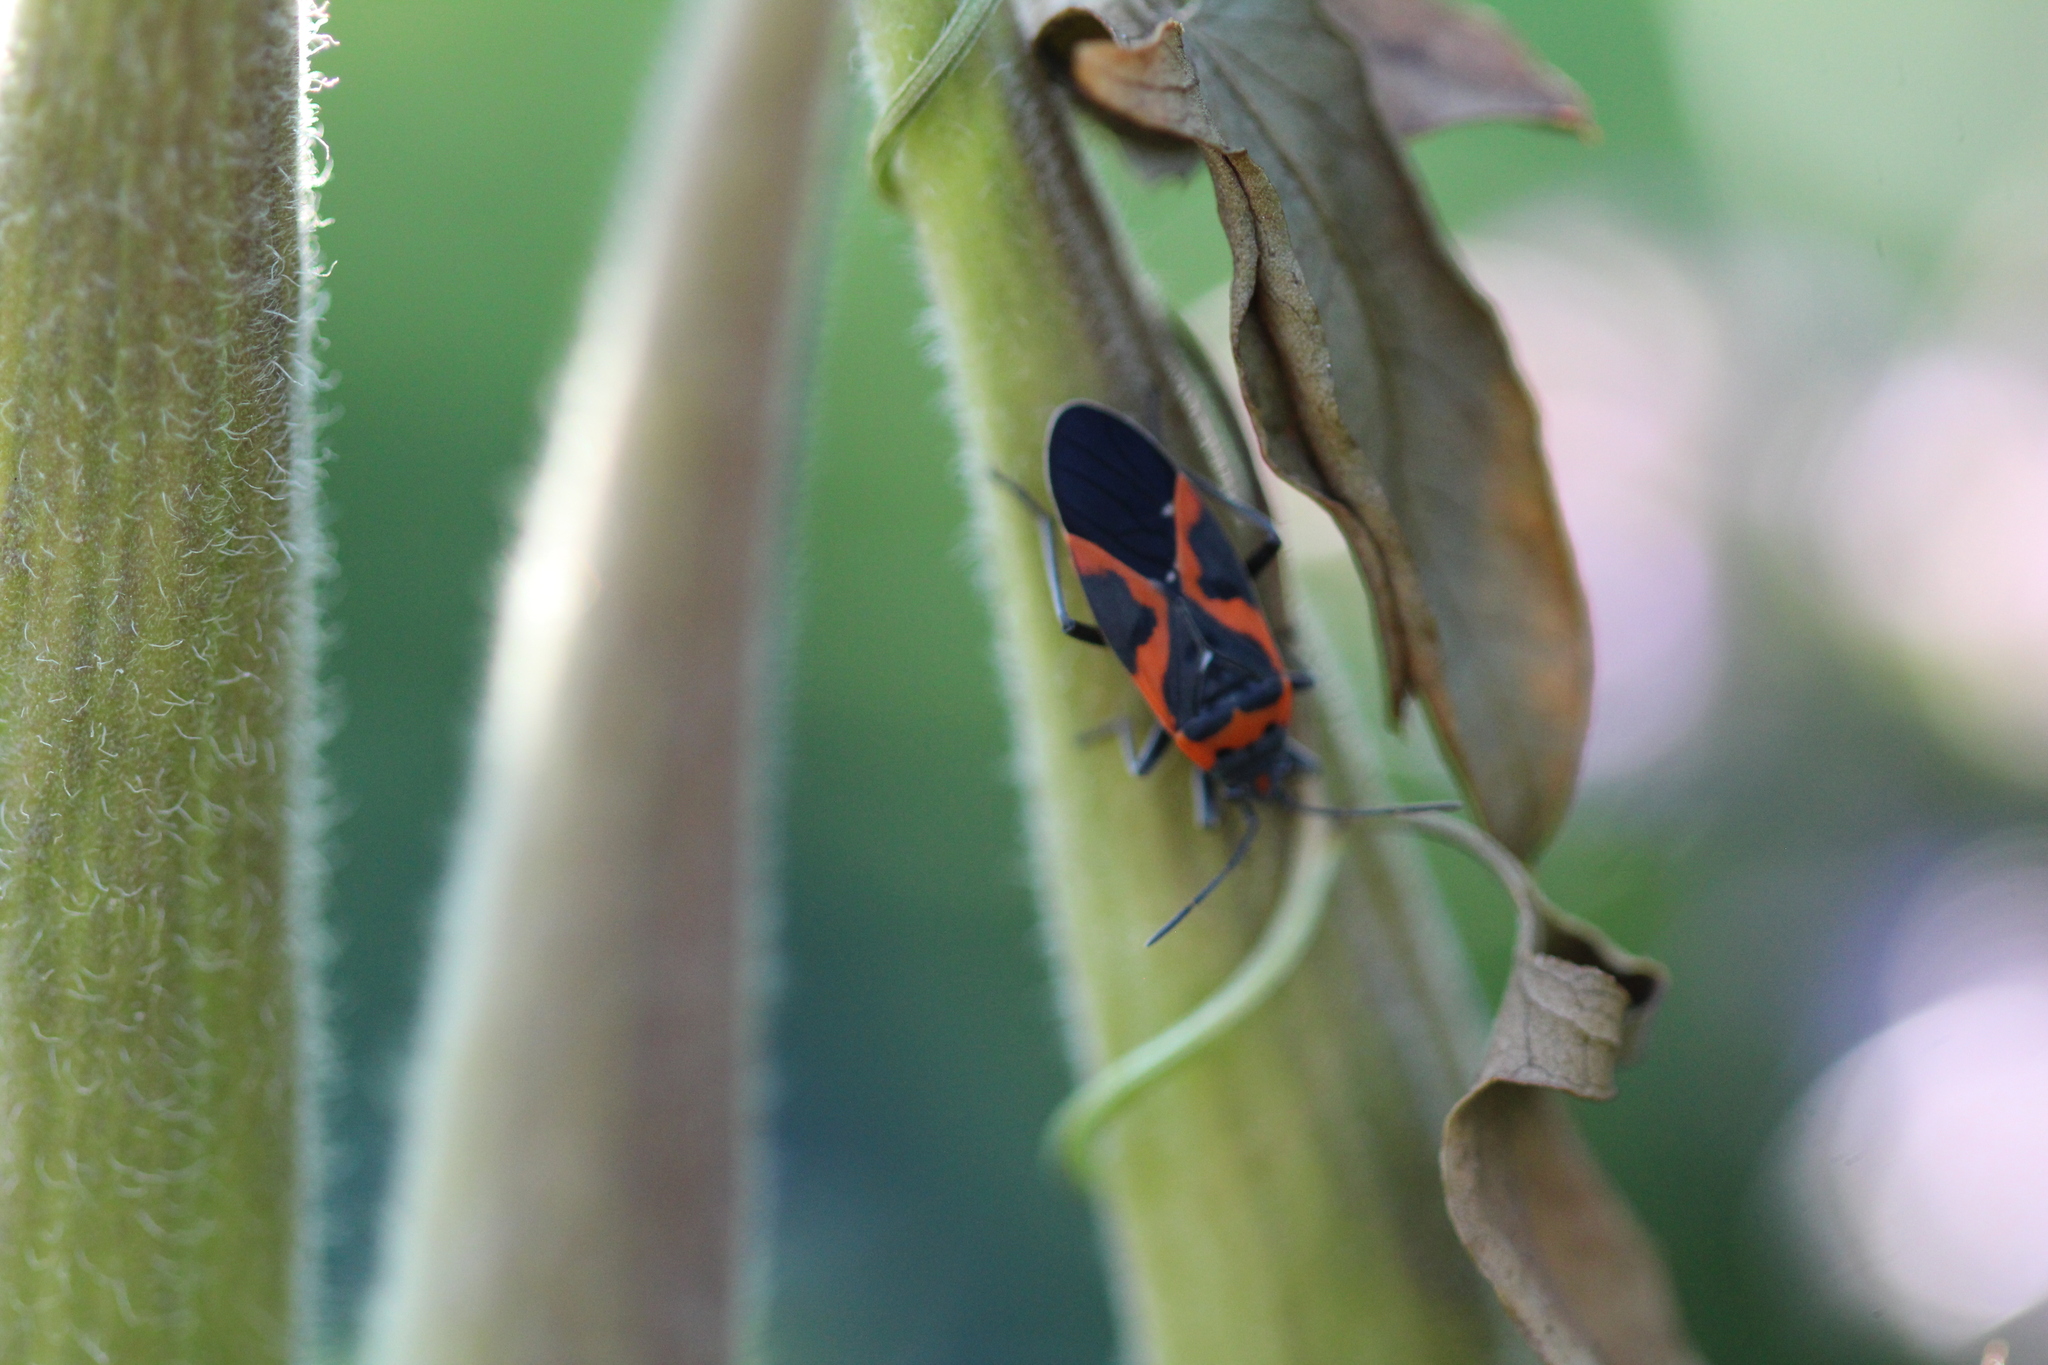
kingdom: Animalia
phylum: Arthropoda
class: Insecta
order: Hemiptera
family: Lygaeidae
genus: Lygaeus
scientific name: Lygaeus kalmii
